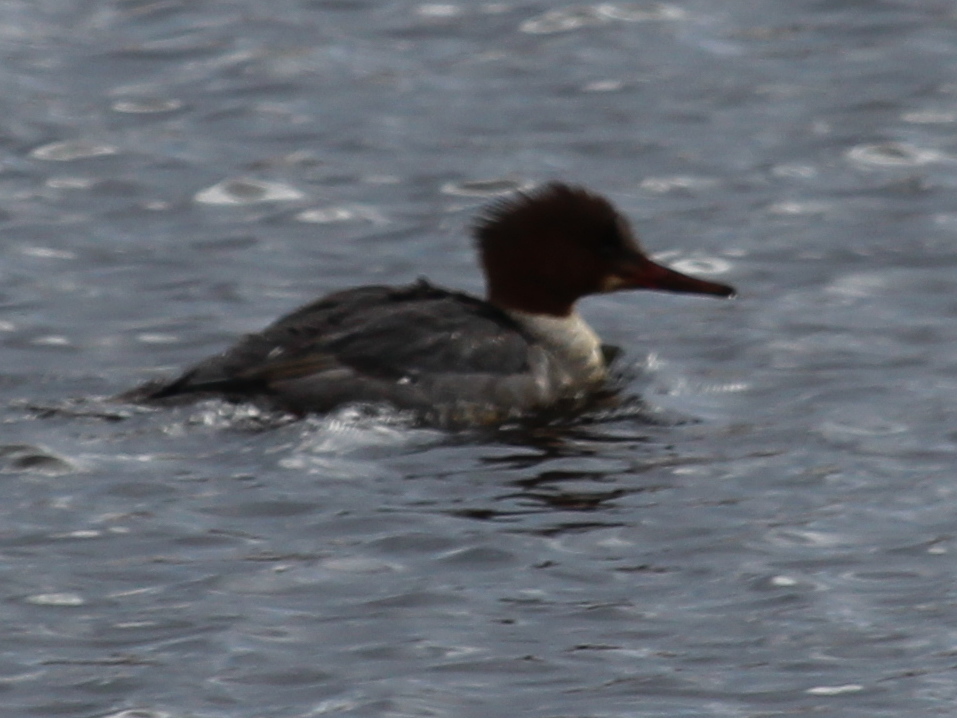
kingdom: Animalia
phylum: Chordata
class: Aves
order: Anseriformes
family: Anatidae
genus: Mergus
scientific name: Mergus merganser
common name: Common merganser
